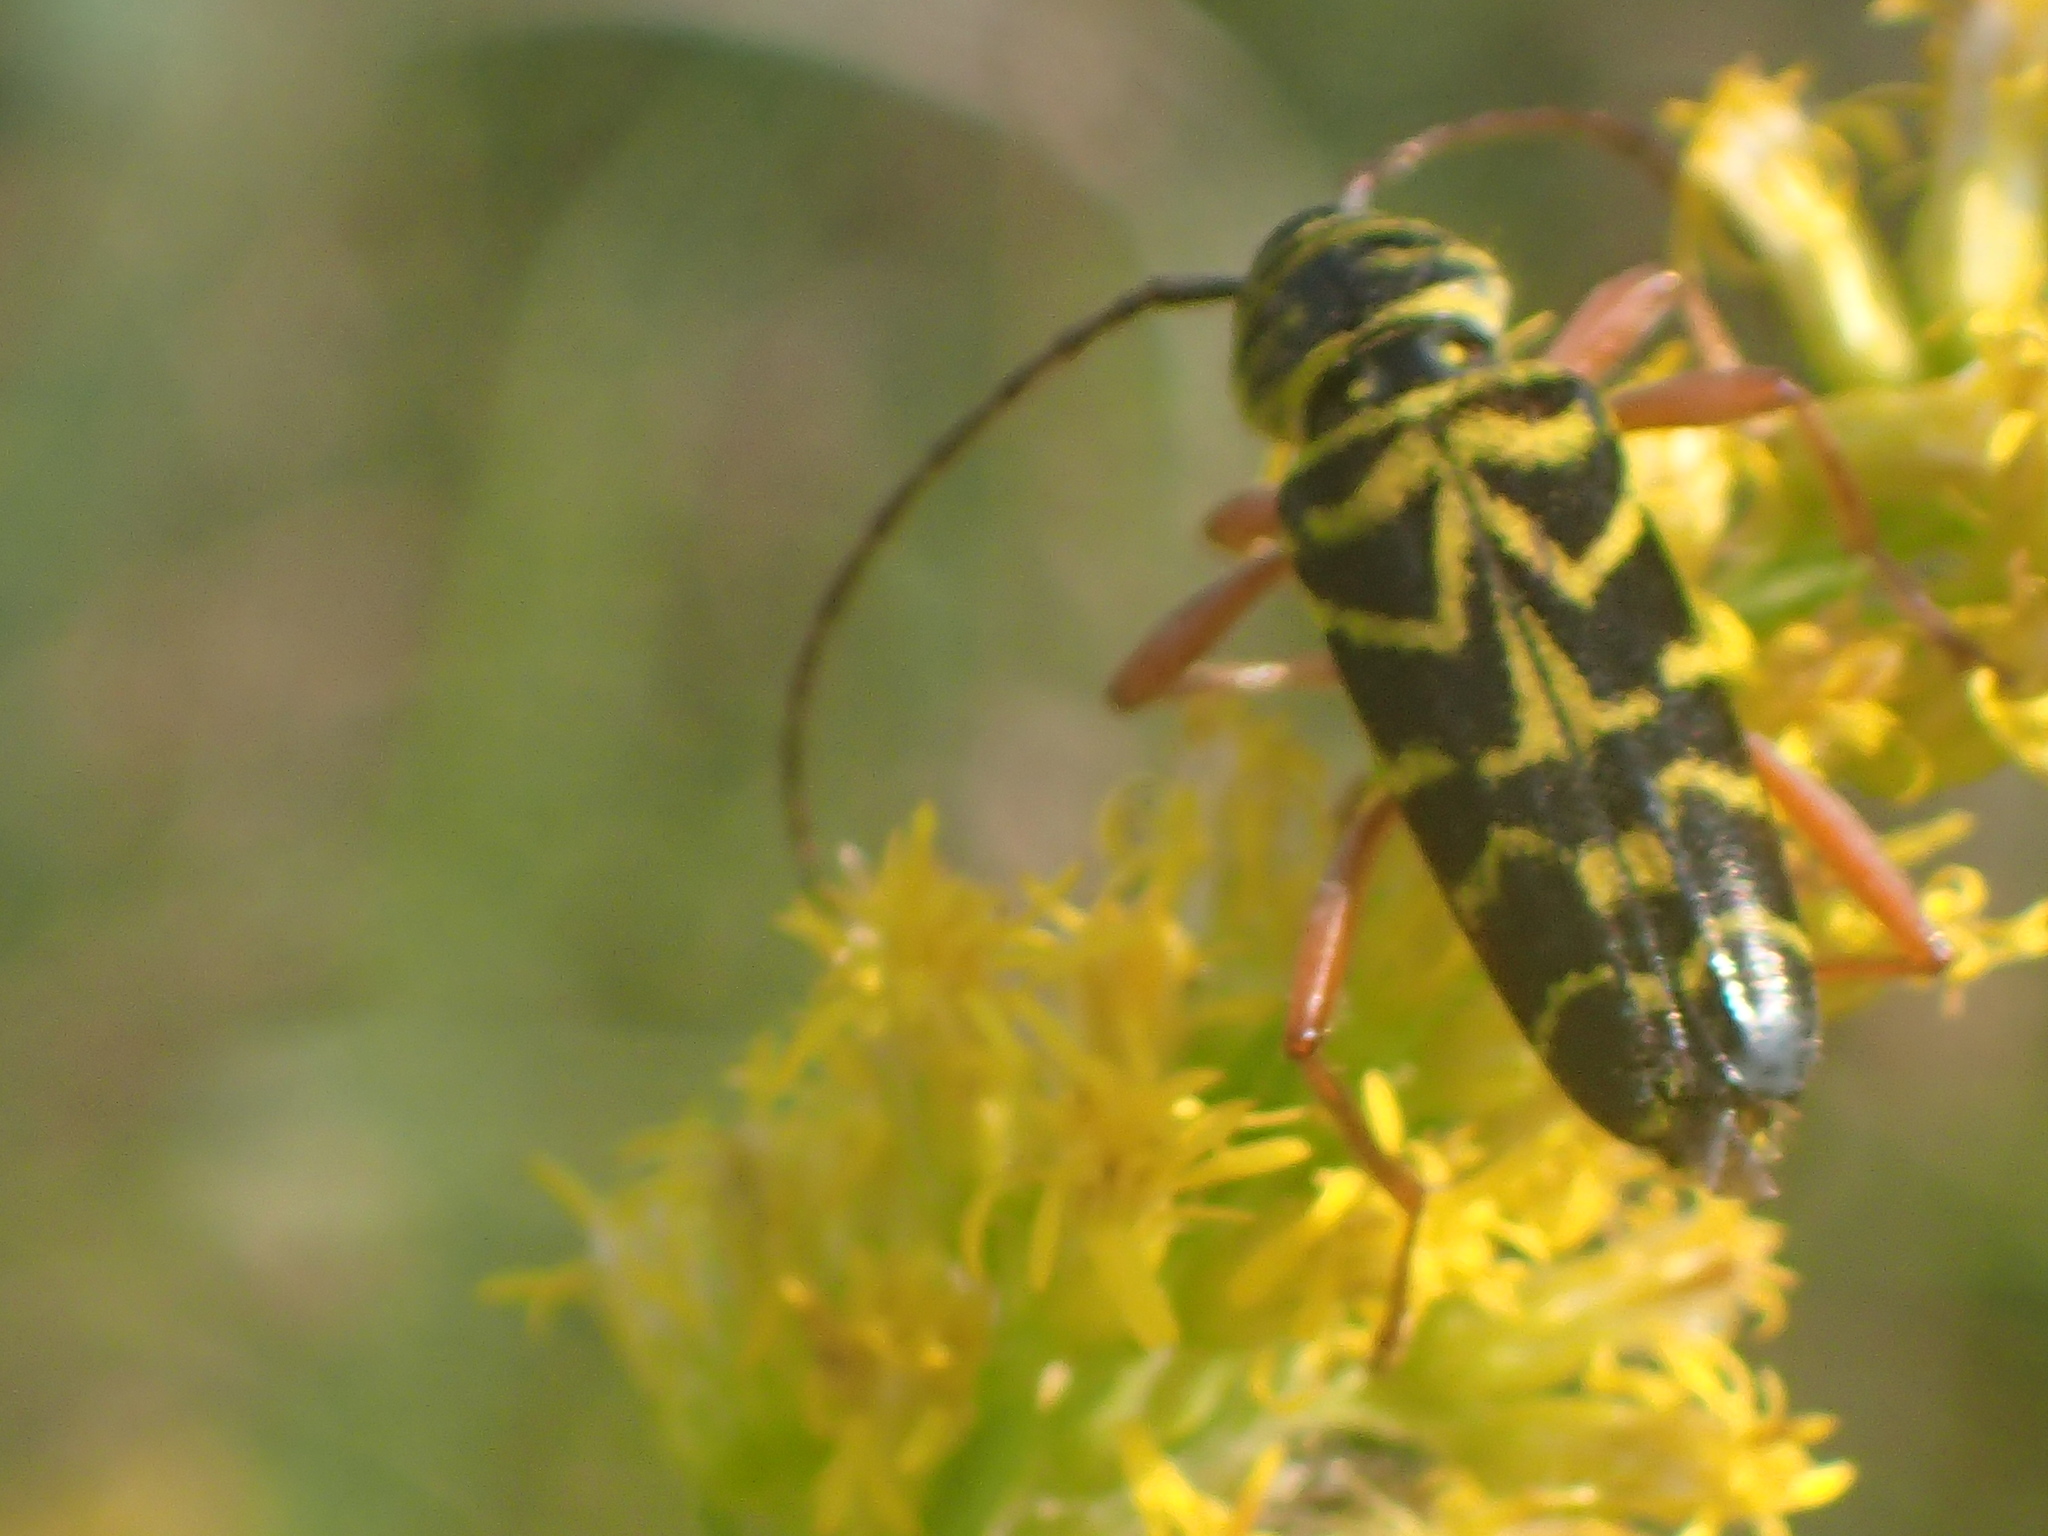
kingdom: Animalia
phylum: Arthropoda
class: Insecta
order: Coleoptera
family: Cerambycidae
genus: Megacyllene
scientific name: Megacyllene robiniae
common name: Locust borer
